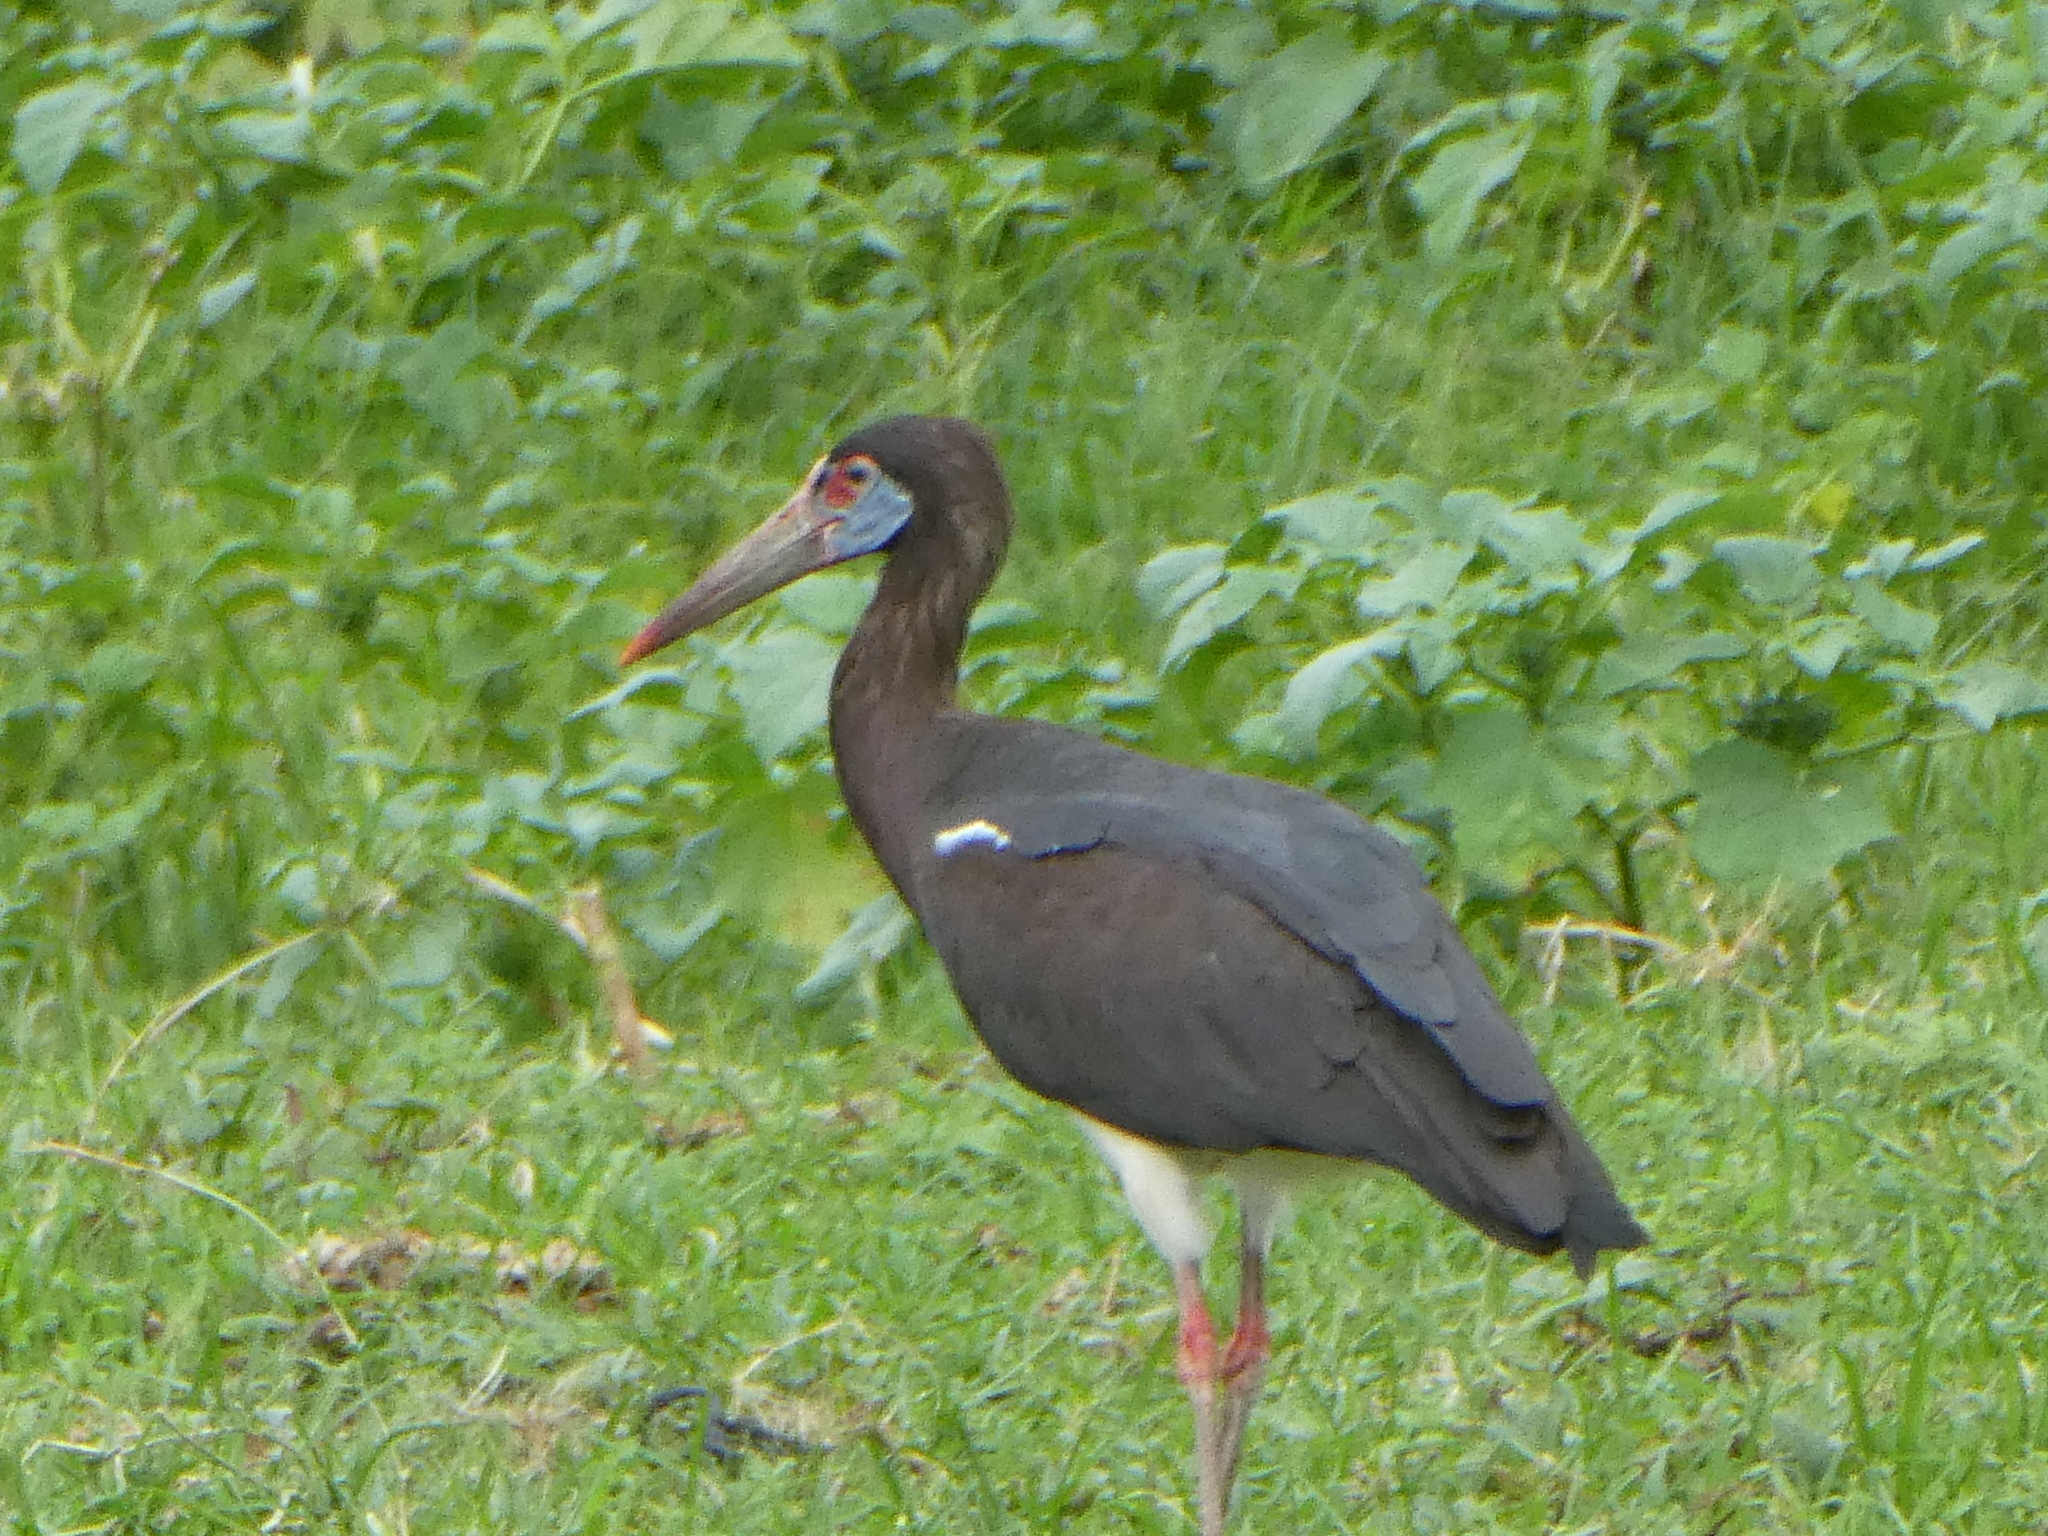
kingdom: Animalia
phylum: Chordata
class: Aves
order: Ciconiiformes
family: Ciconiidae
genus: Ciconia
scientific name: Ciconia abdimii
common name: Abdim's stork
